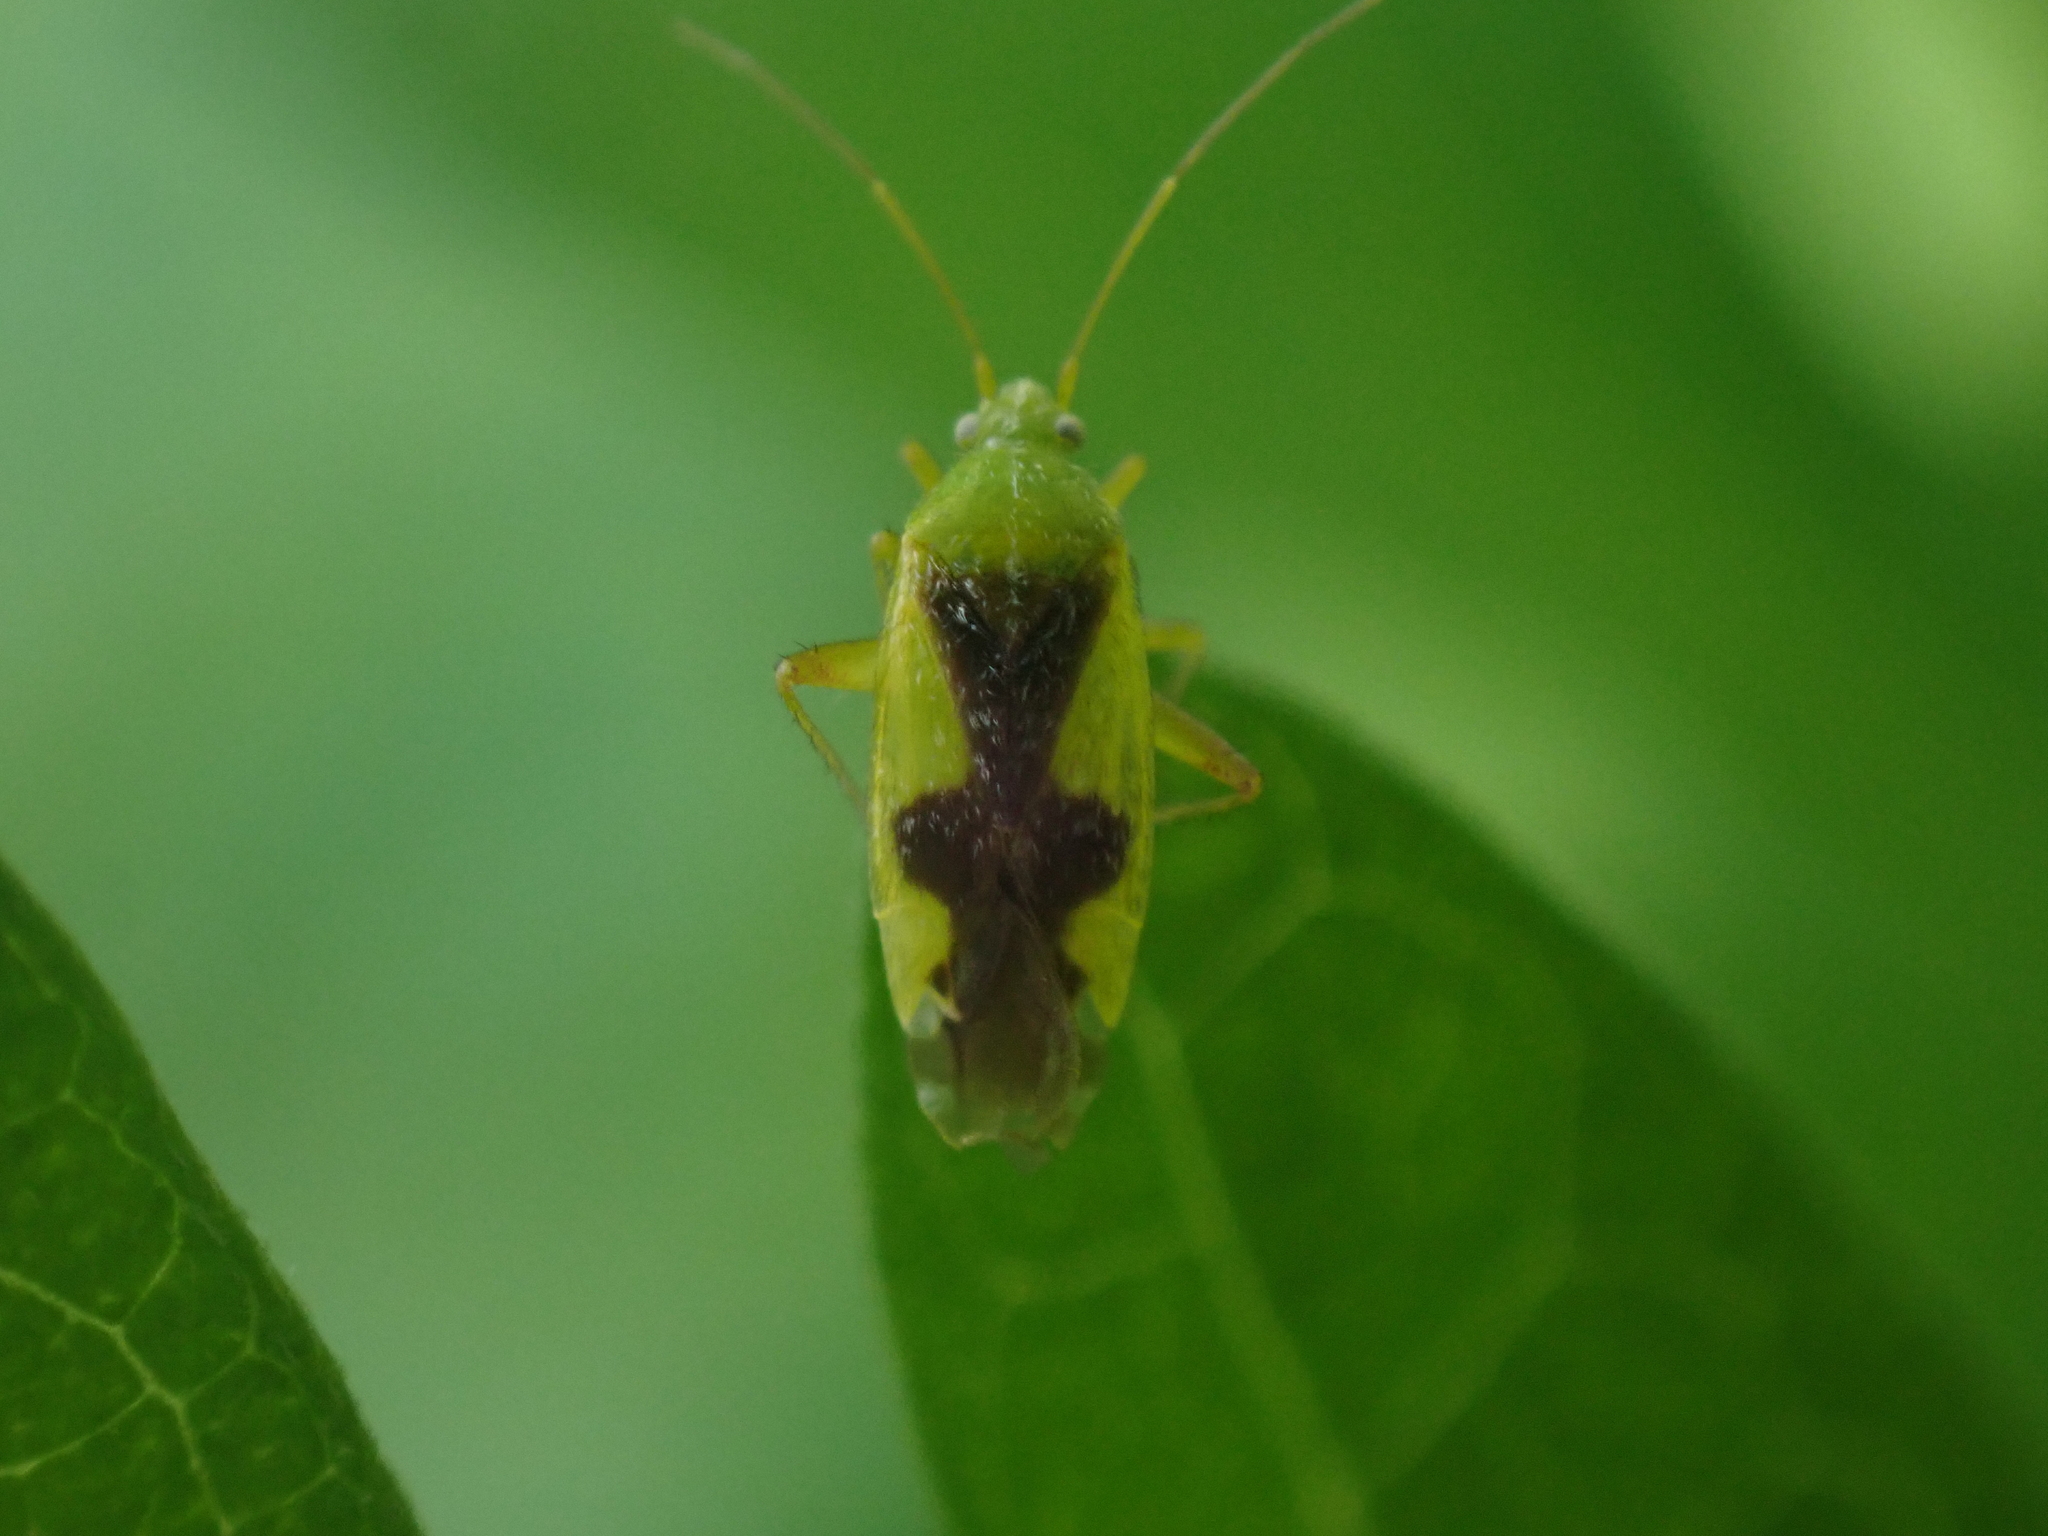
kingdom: Animalia
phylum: Arthropoda
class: Insecta
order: Hemiptera
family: Miridae
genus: Reuteroscopus
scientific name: Reuteroscopus ornatus
